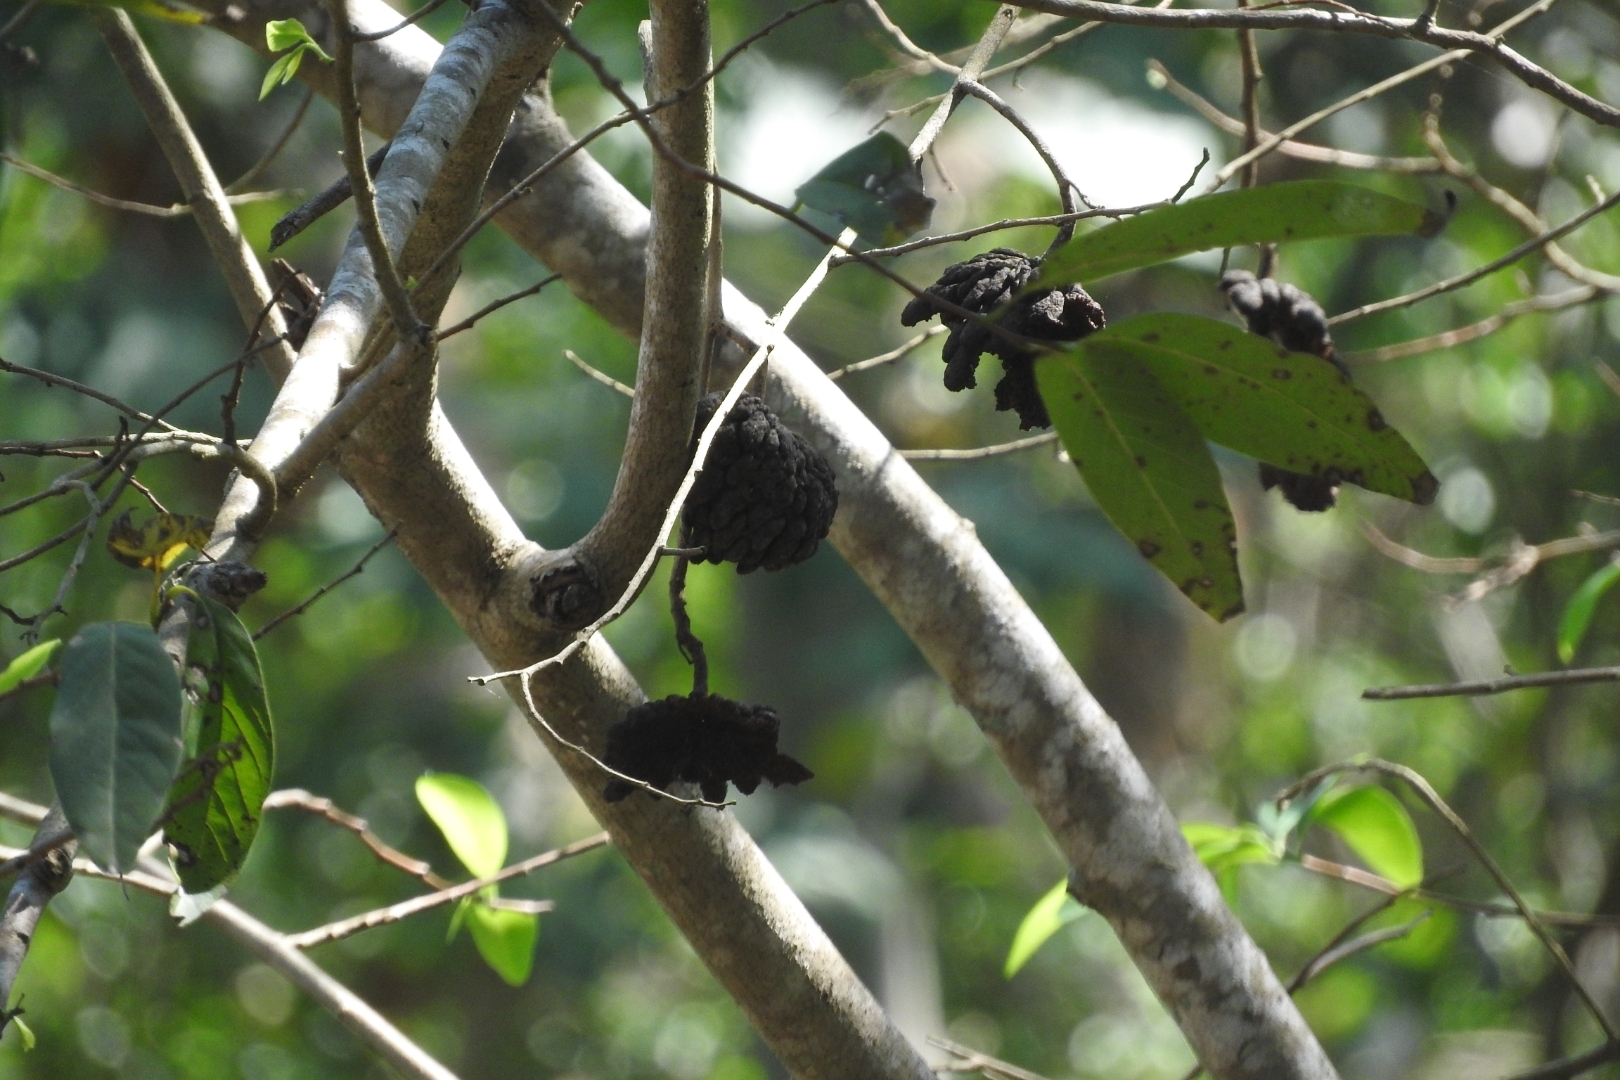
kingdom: Plantae
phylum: Tracheophyta
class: Magnoliopsida
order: Magnoliales
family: Annonaceae
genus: Annona
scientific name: Annona squamosa
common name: Custard-apple
